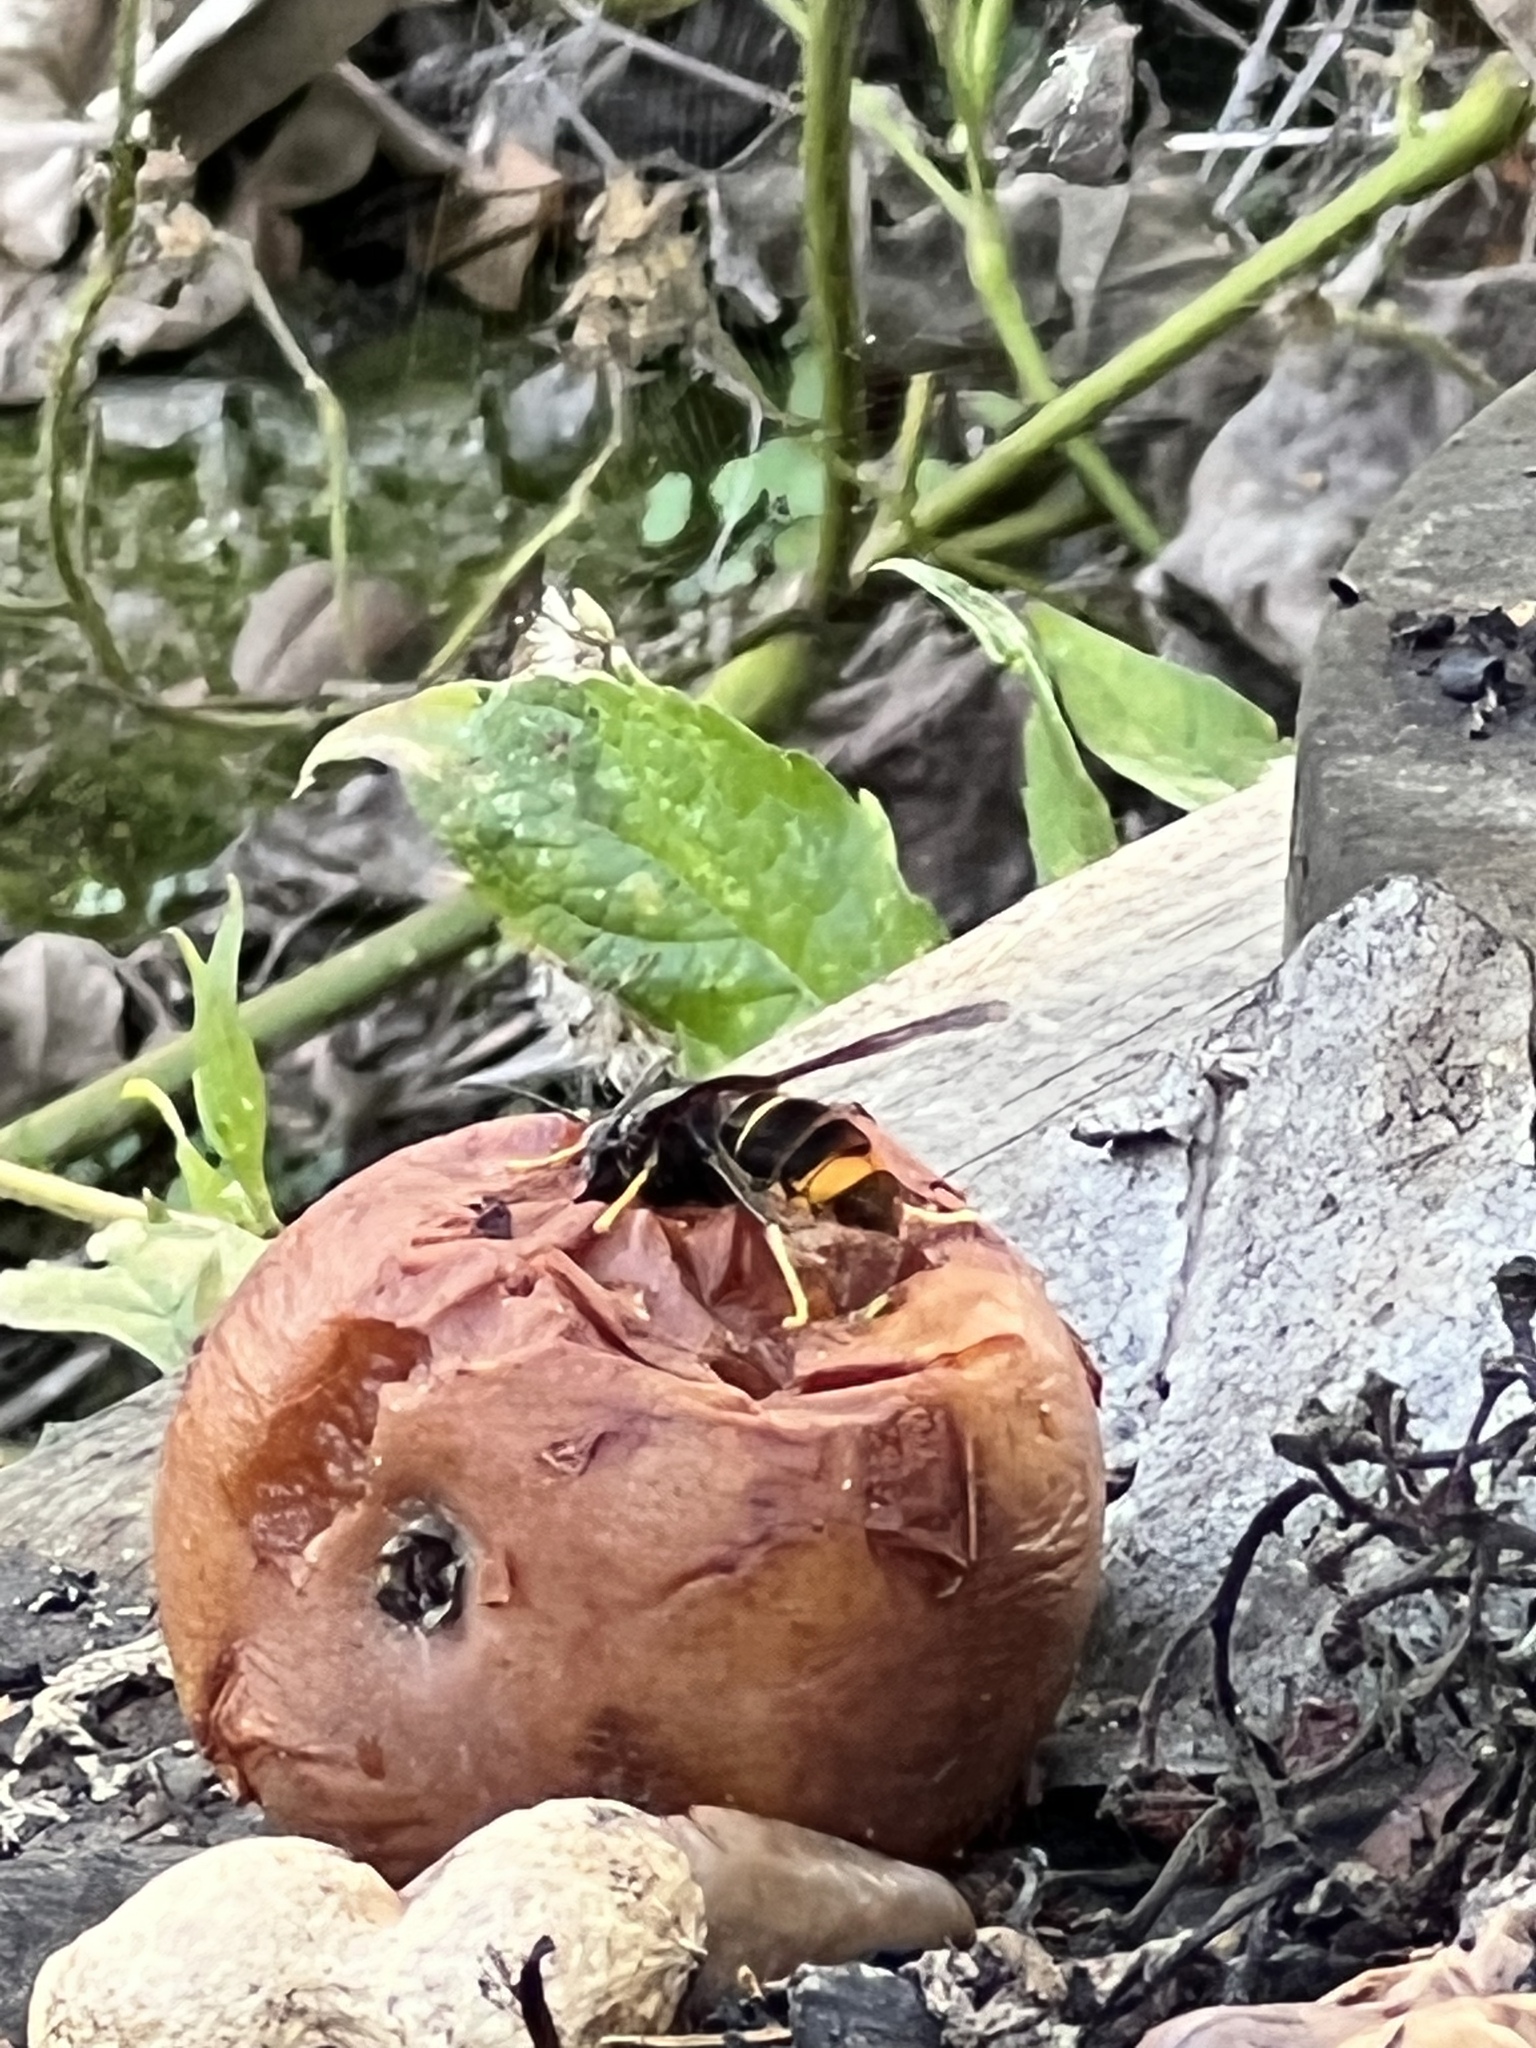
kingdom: Animalia
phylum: Arthropoda
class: Insecta
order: Hymenoptera
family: Vespidae
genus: Vespa
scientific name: Vespa velutina
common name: Asian hornet
